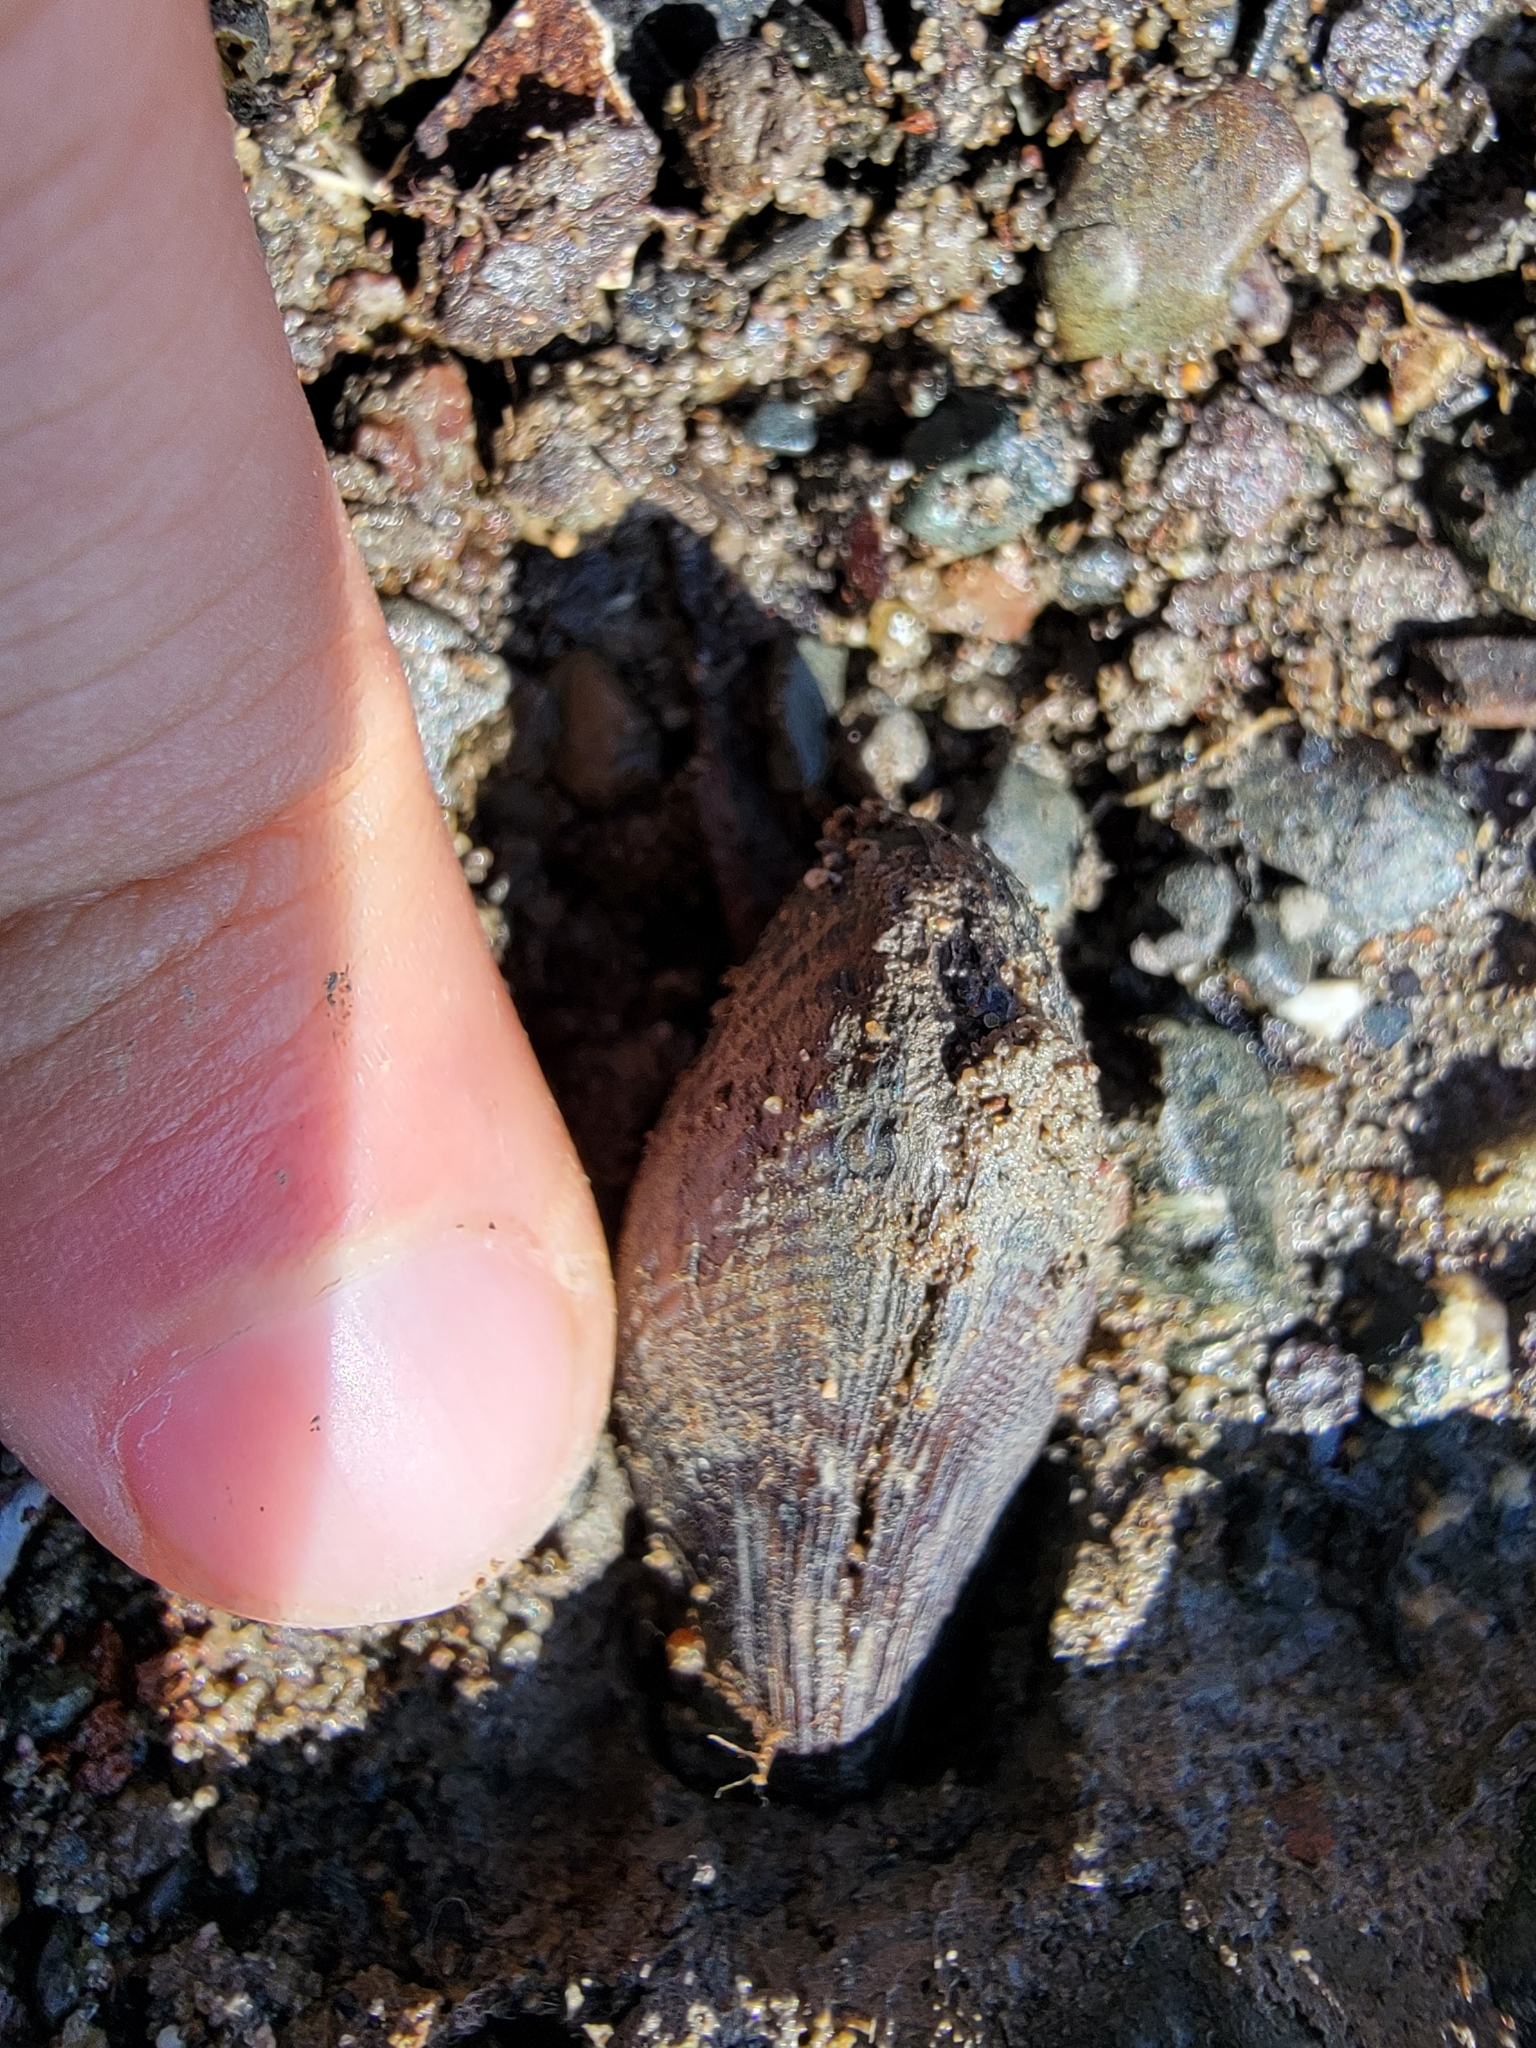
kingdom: Animalia
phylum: Mollusca
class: Bivalvia
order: Mytilida
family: Mytilidae
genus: Geukensia
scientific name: Geukensia demissa
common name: Ribbed mussel
